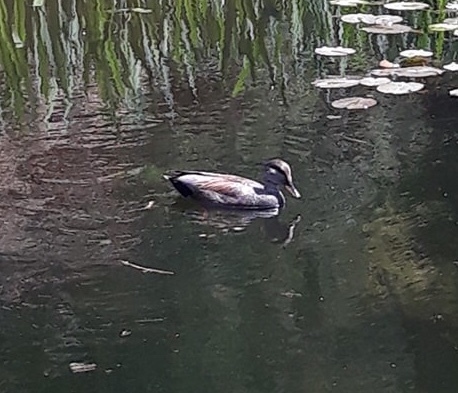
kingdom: Animalia
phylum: Chordata
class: Aves
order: Anseriformes
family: Anatidae
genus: Mareca
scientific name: Mareca strepera
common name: Gadwall
